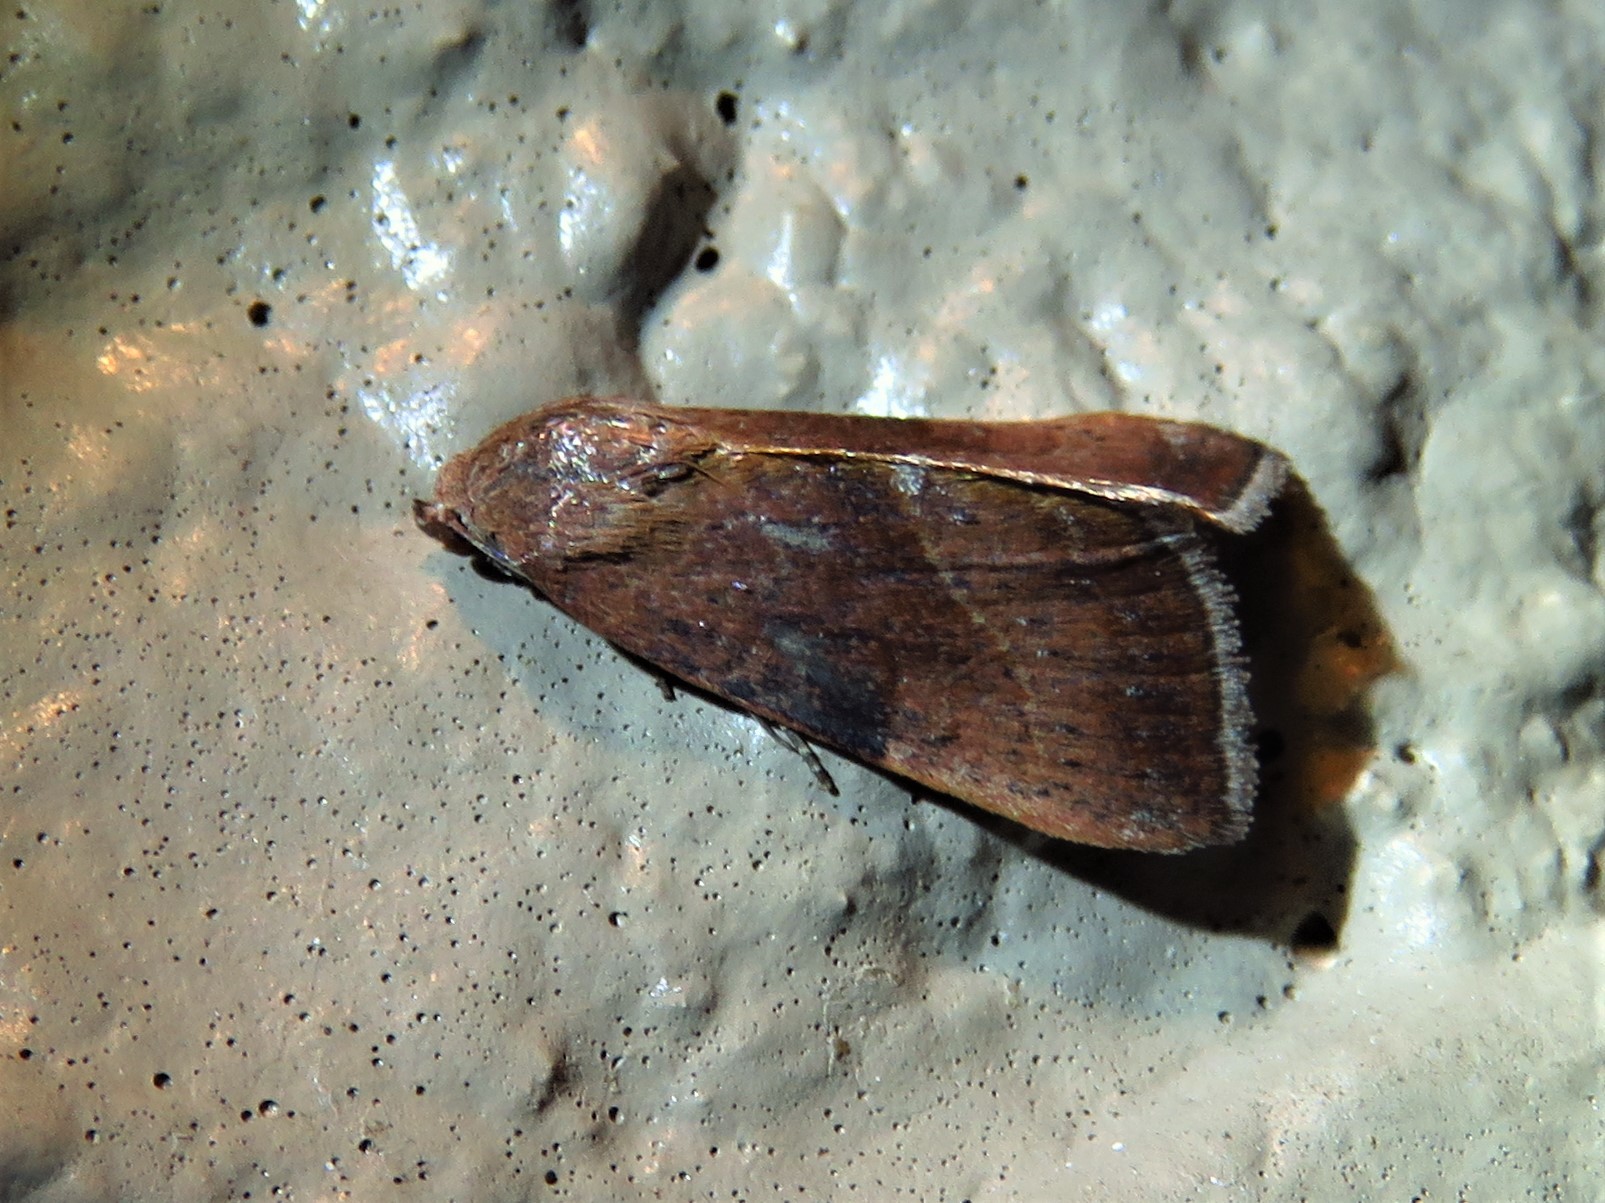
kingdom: Animalia
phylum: Arthropoda
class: Insecta
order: Lepidoptera
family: Noctuidae
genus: Galgula
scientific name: Galgula partita
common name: Wedgeling
